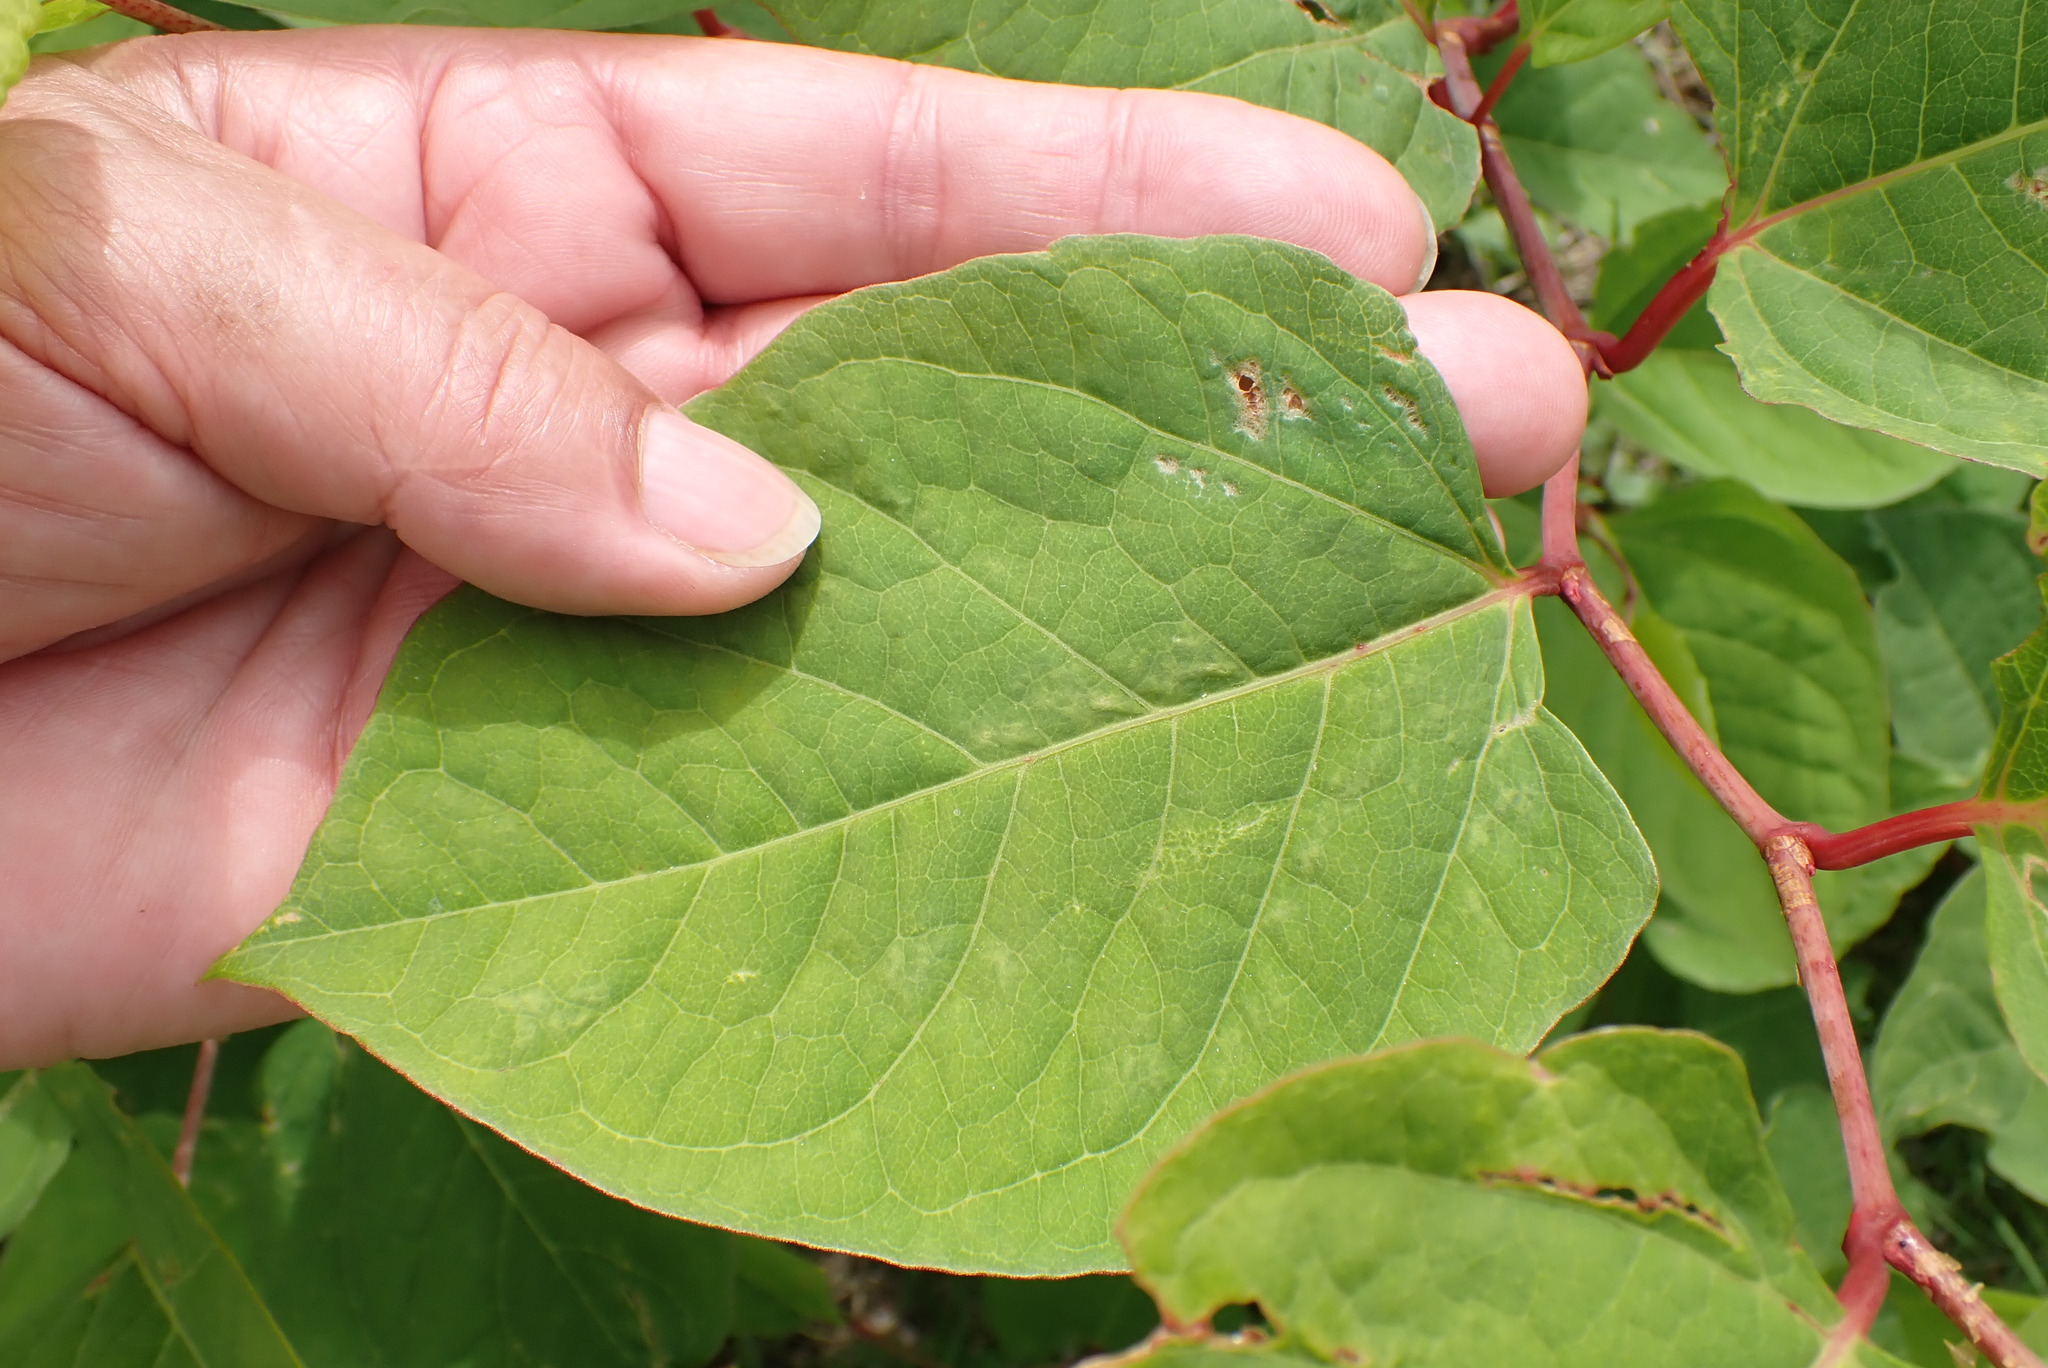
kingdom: Plantae
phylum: Tracheophyta
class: Magnoliopsida
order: Caryophyllales
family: Polygonaceae
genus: Reynoutria
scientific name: Reynoutria japonica
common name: Japanese knotweed
